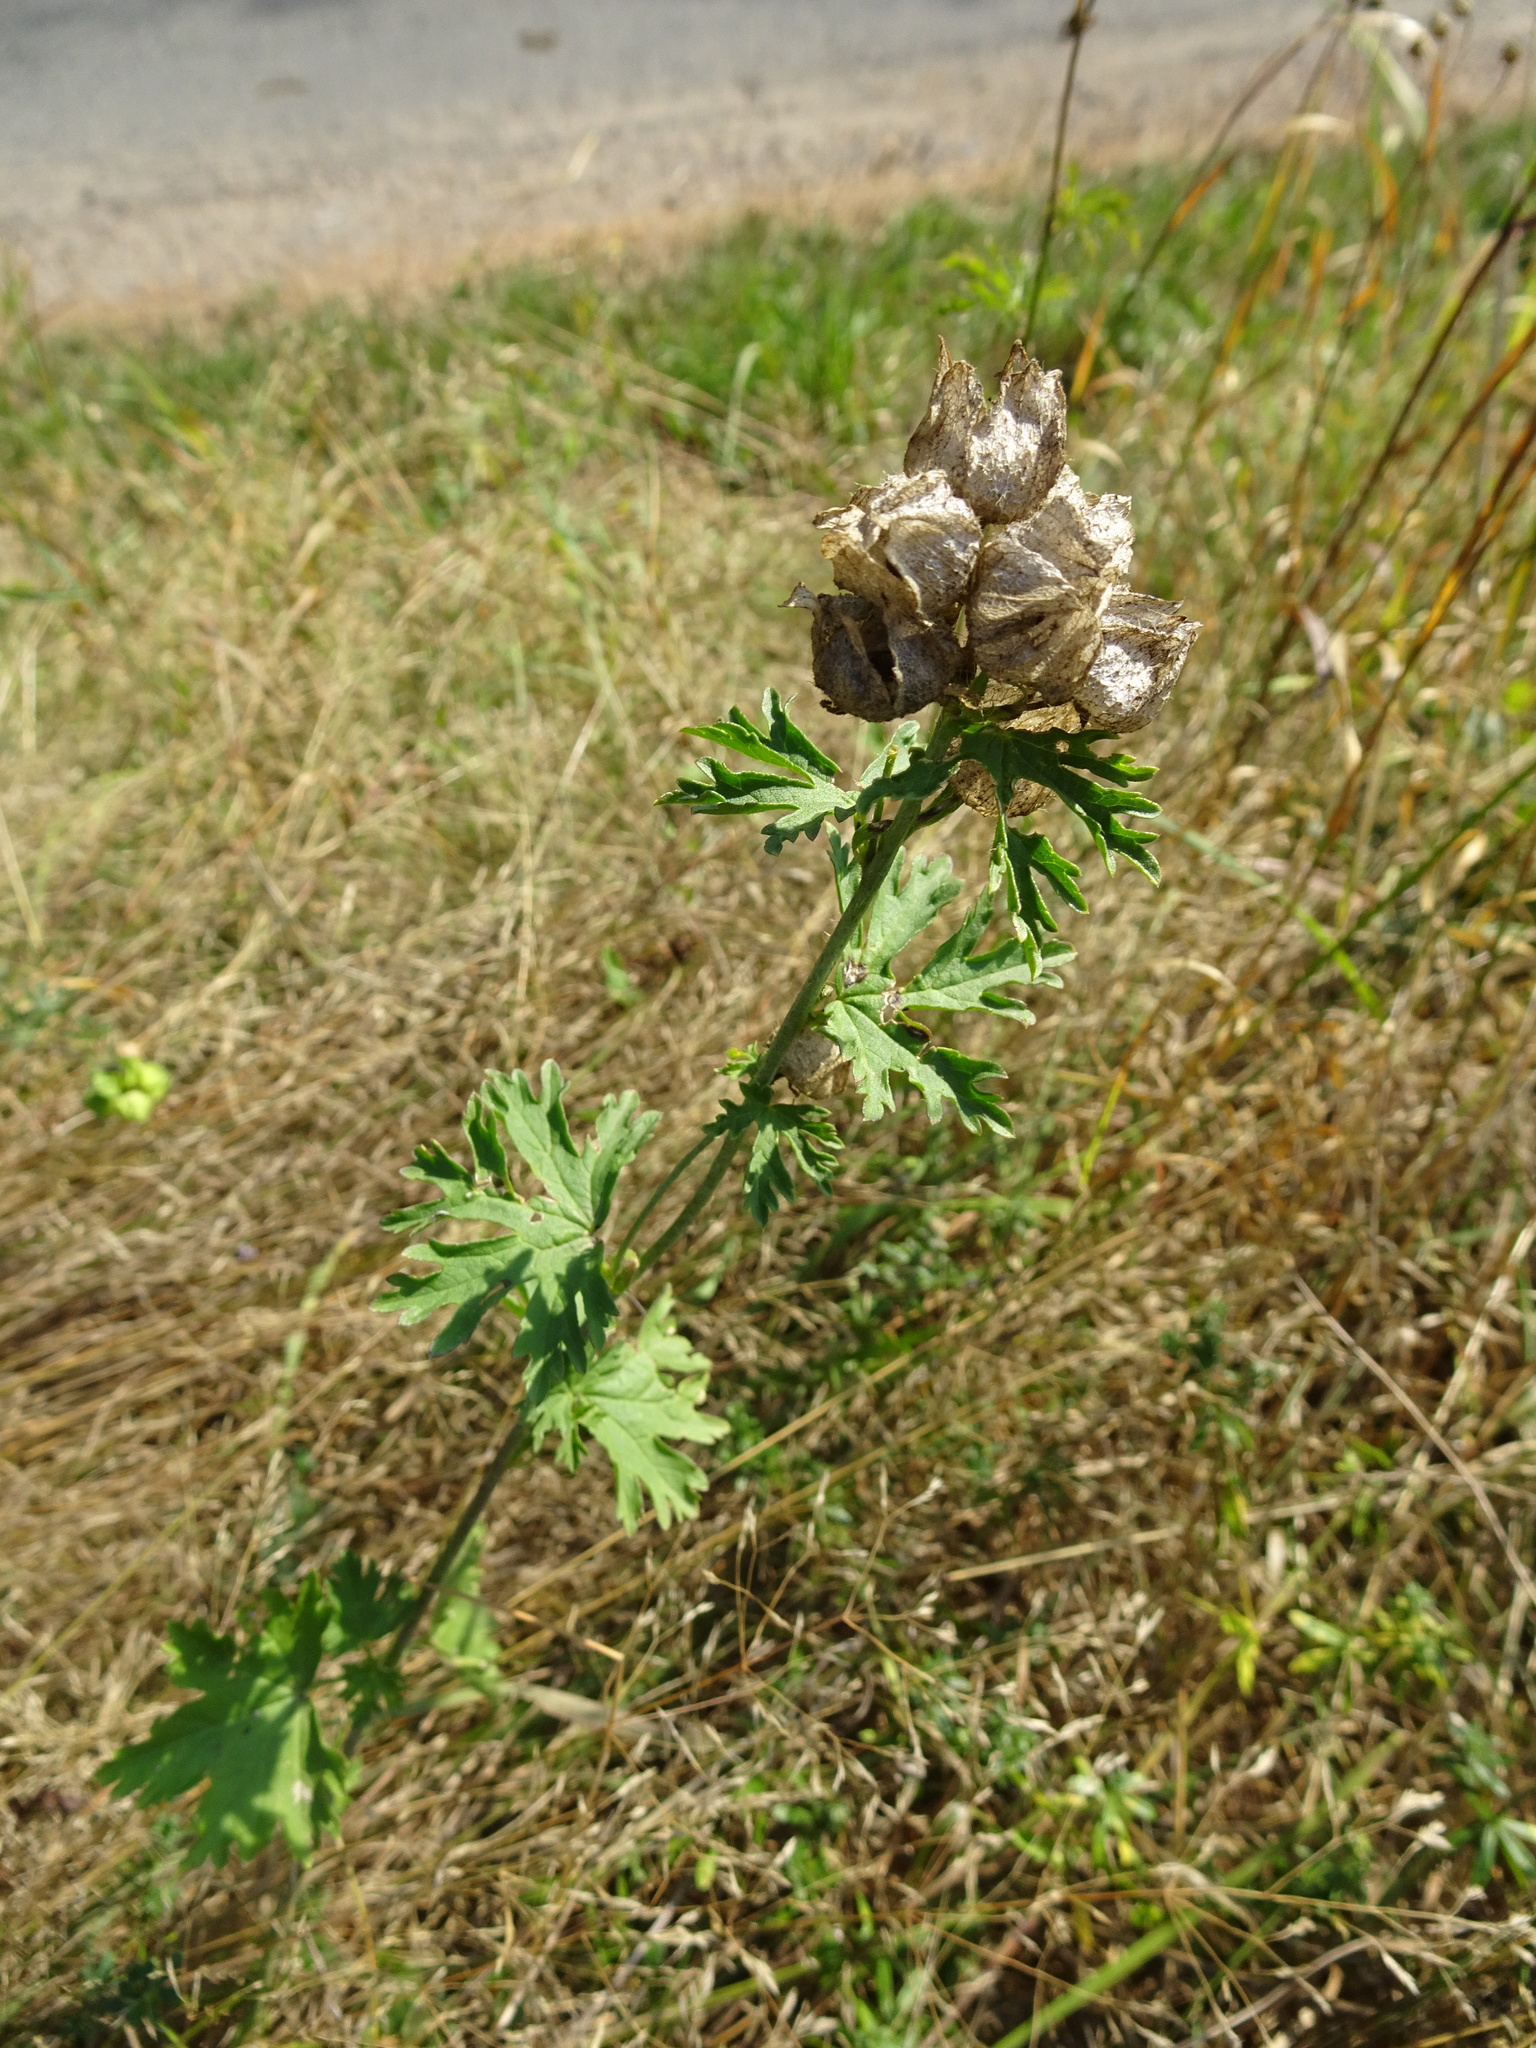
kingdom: Plantae
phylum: Tracheophyta
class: Magnoliopsida
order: Malvales
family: Malvaceae
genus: Malva
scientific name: Malva moschata
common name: Musk mallow
